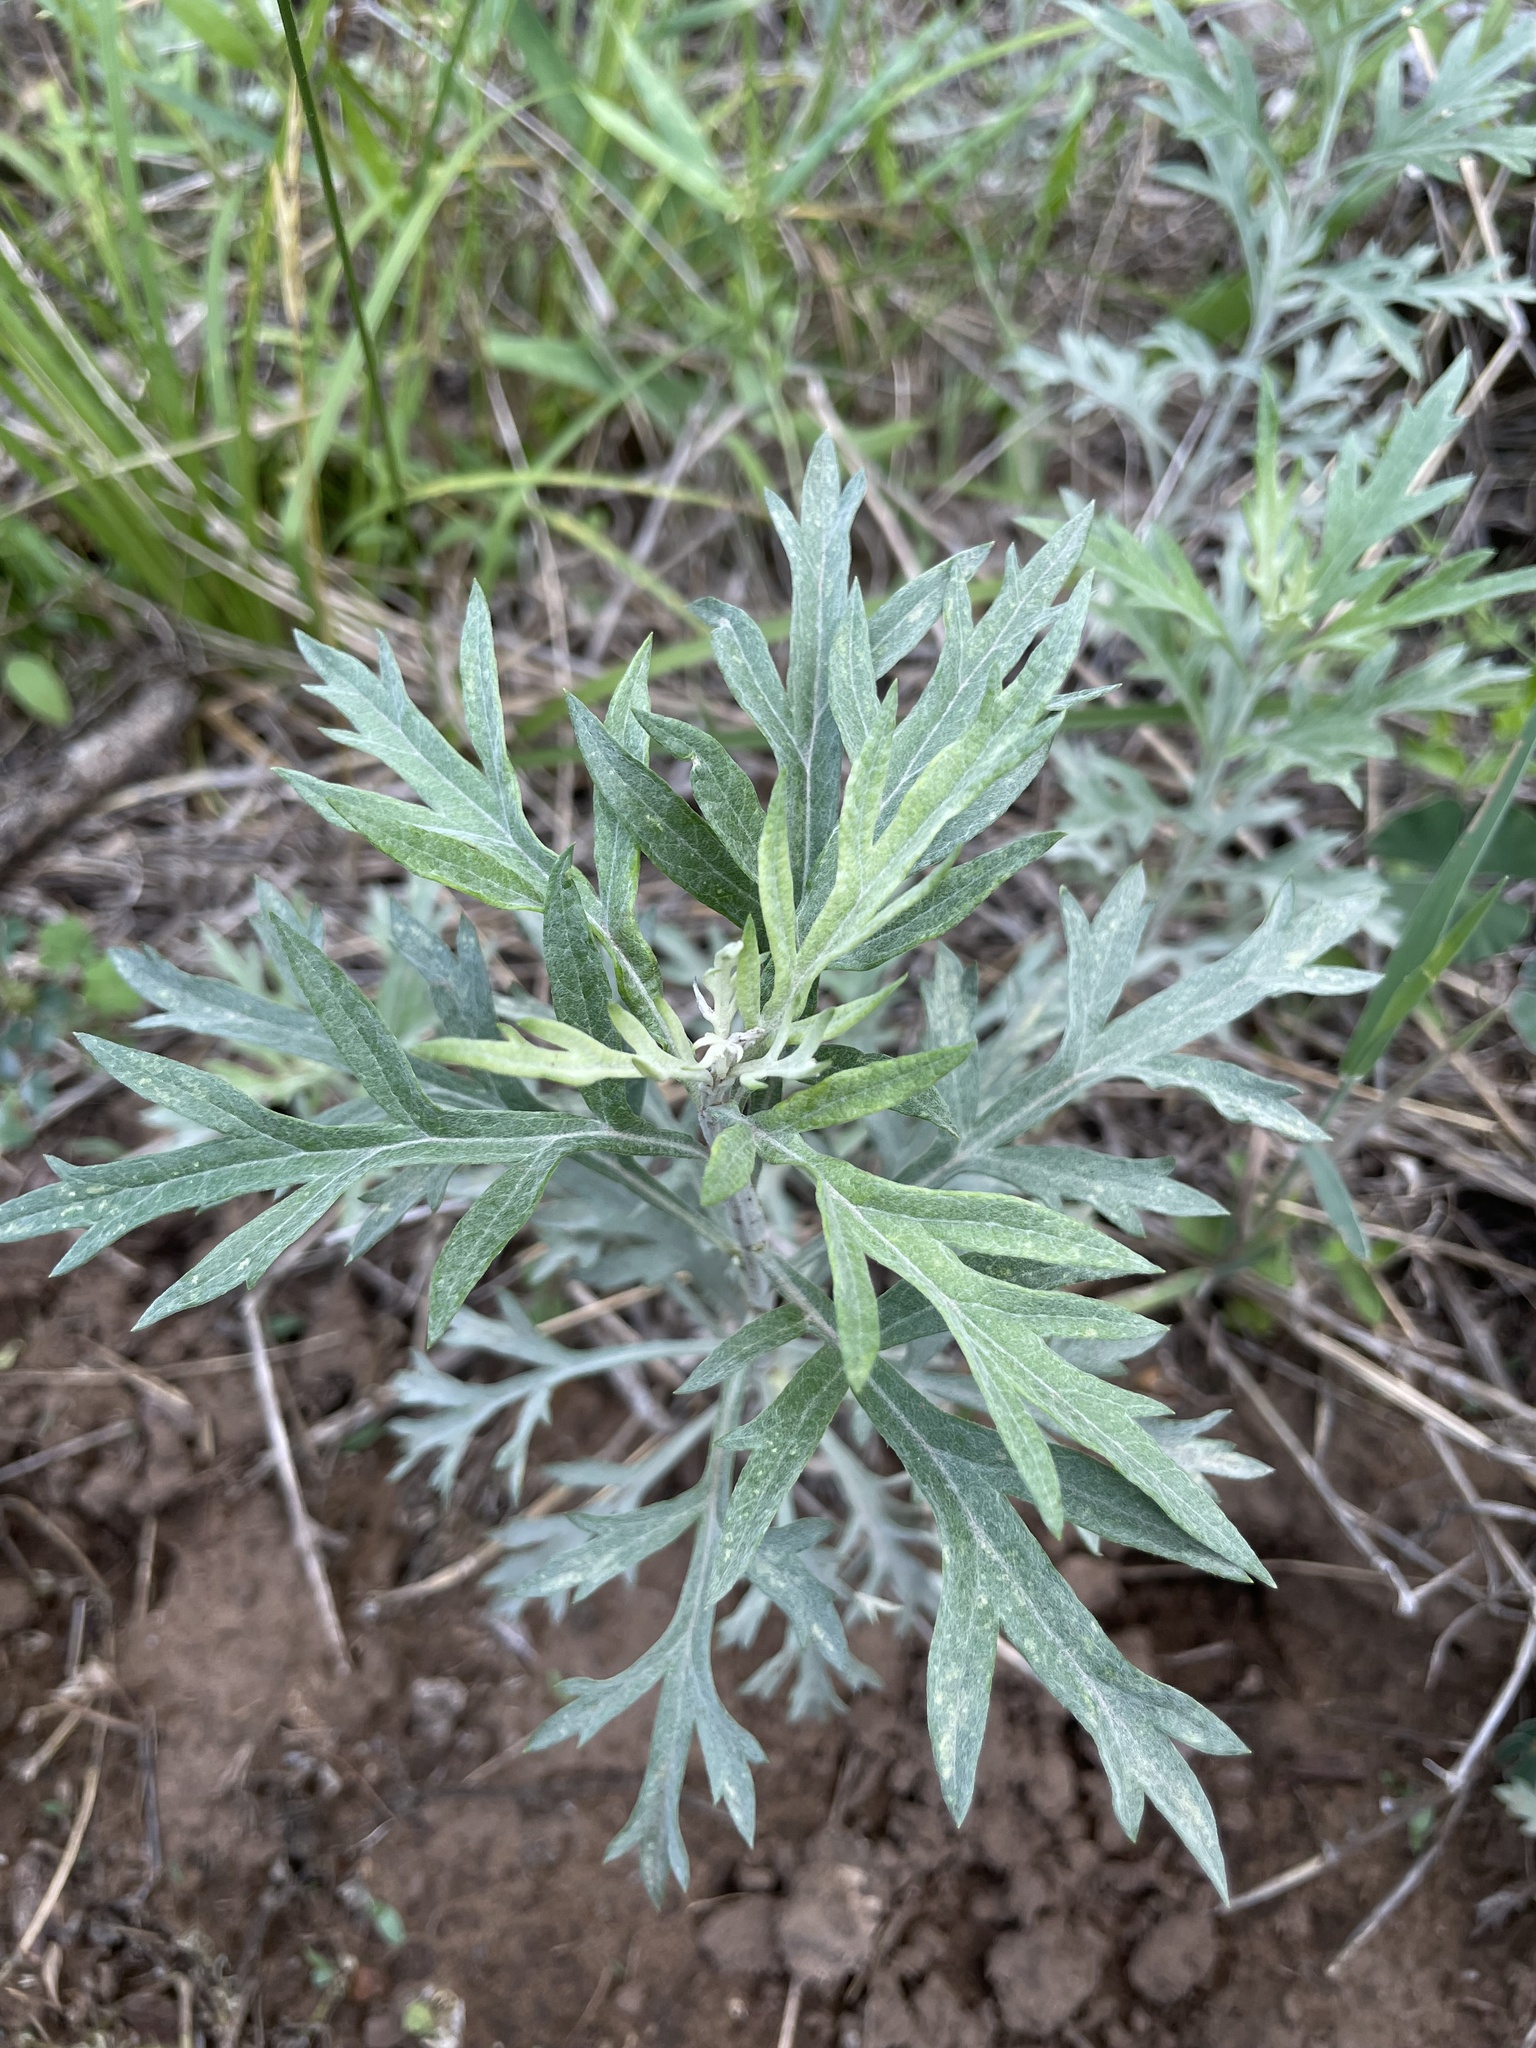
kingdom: Plantae
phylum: Tracheophyta
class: Magnoliopsida
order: Asterales
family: Asteraceae
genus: Artemisia
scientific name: Artemisia ludoviciana
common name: Western mugwort
